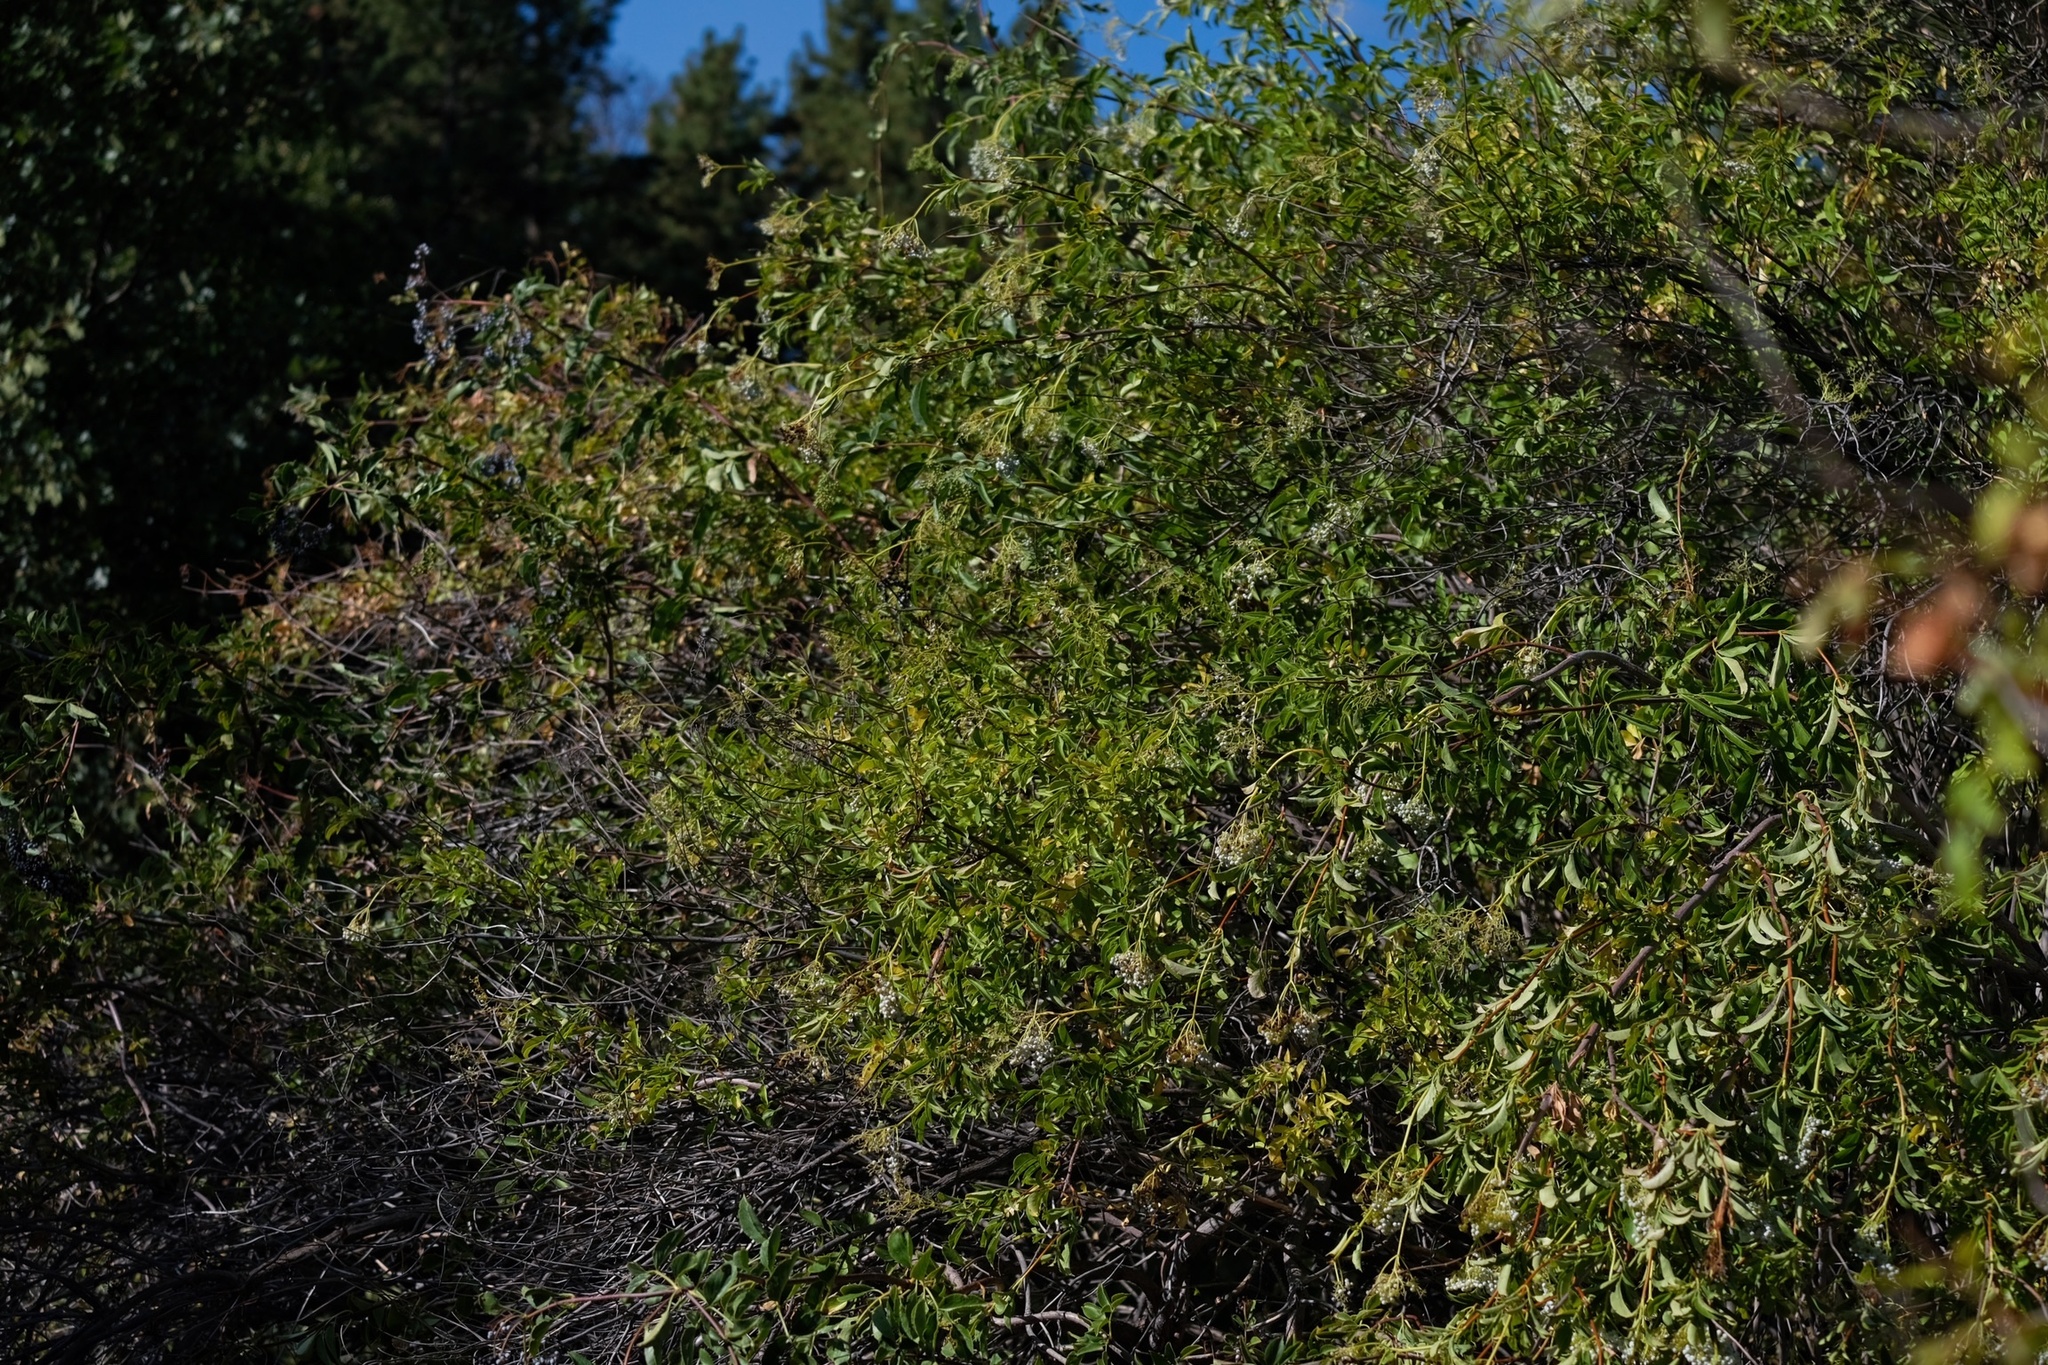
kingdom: Plantae
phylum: Tracheophyta
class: Magnoliopsida
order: Dipsacales
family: Viburnaceae
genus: Sambucus
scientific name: Sambucus cerulea
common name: Blue elder
